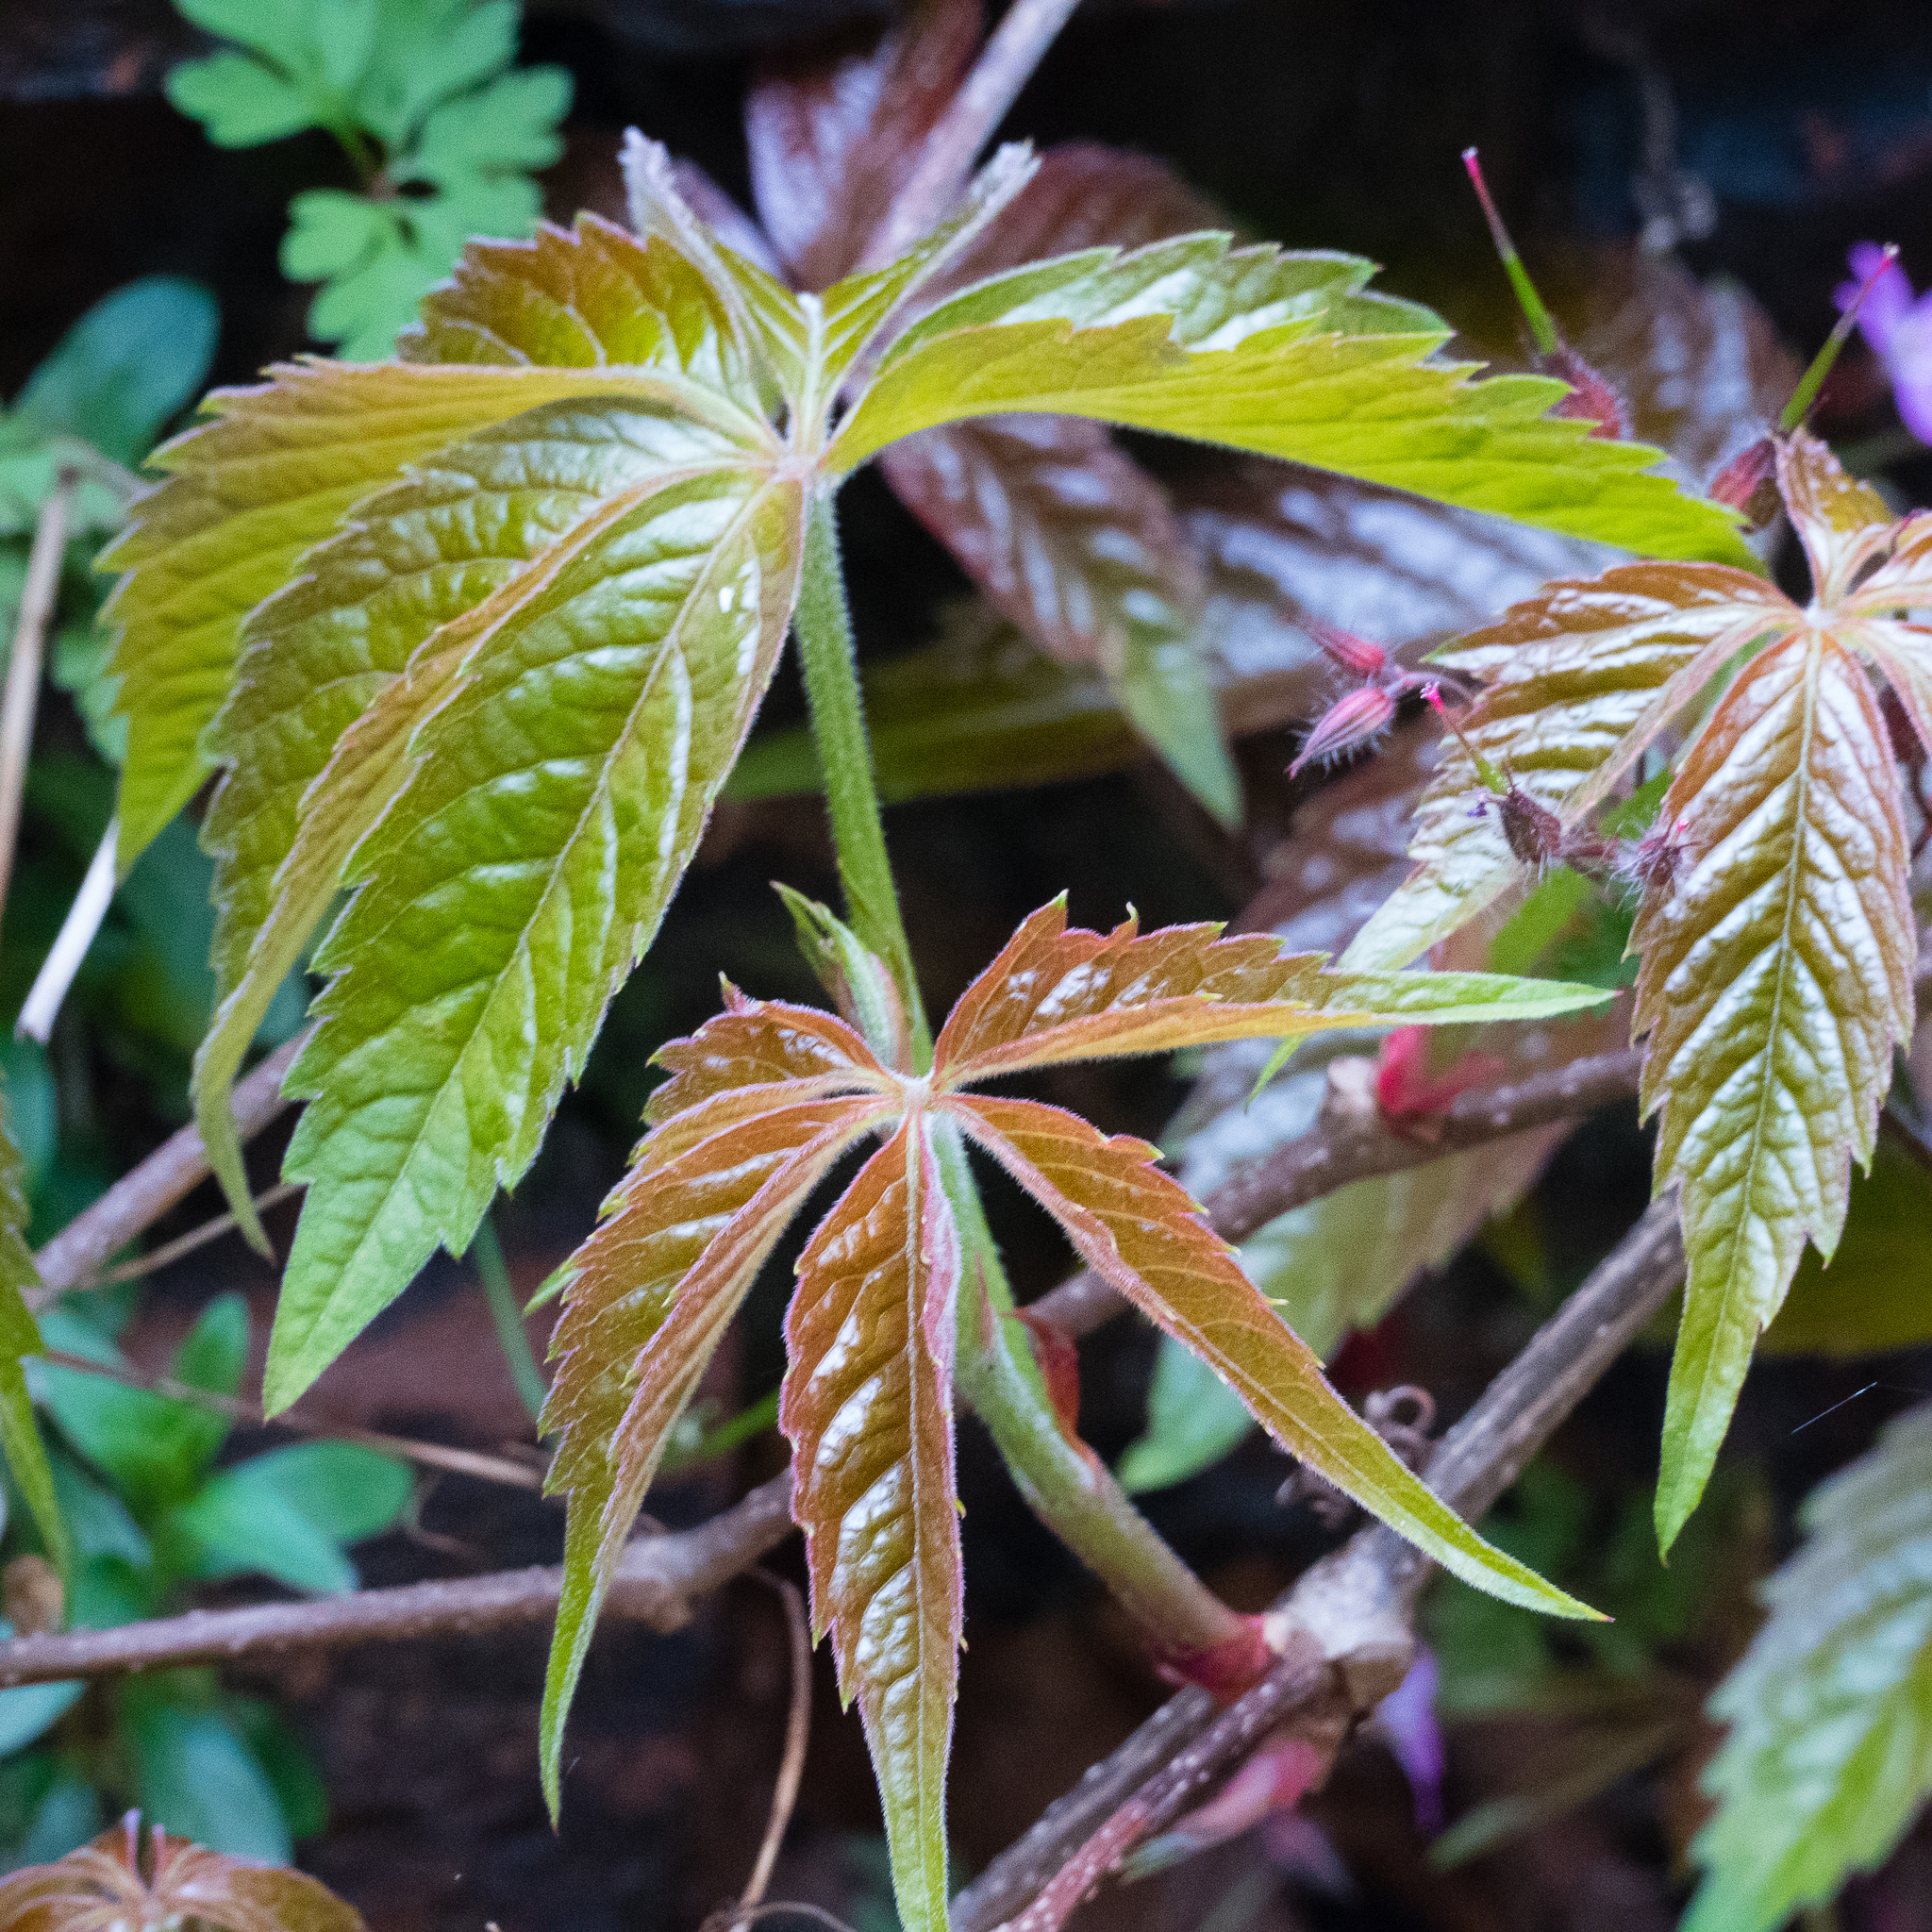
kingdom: Plantae
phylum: Tracheophyta
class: Magnoliopsida
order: Vitales
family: Vitaceae
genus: Parthenocissus
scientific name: Parthenocissus quinquefolia
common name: Virginia-creeper
